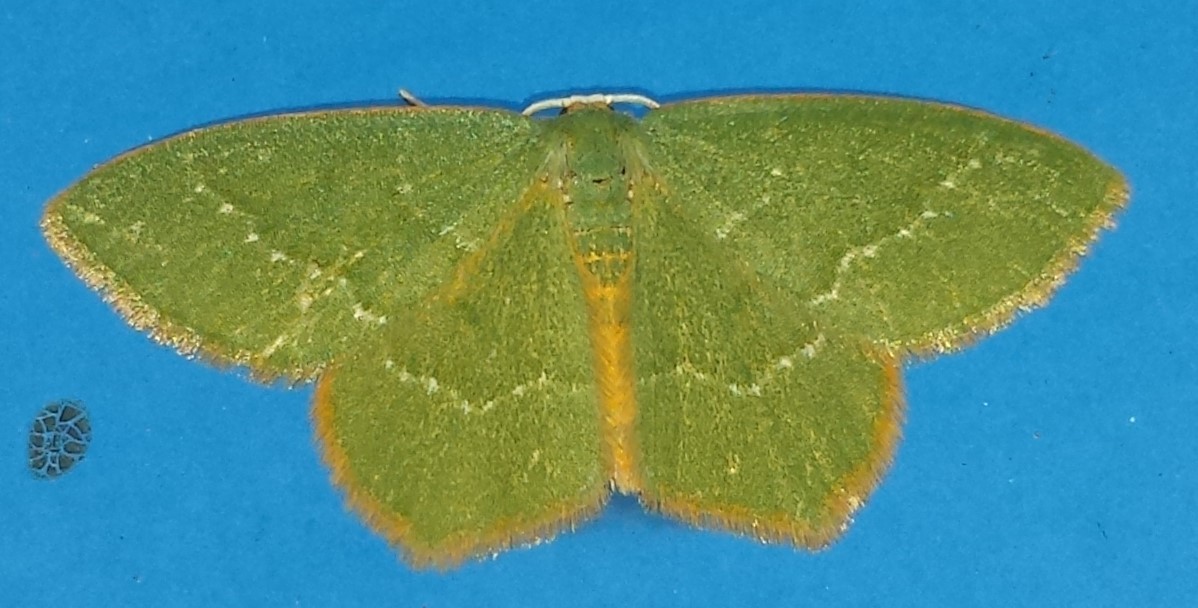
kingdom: Animalia
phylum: Arthropoda
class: Insecta
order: Lepidoptera
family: Geometridae
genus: Thalera
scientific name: Thalera pistasciaria
